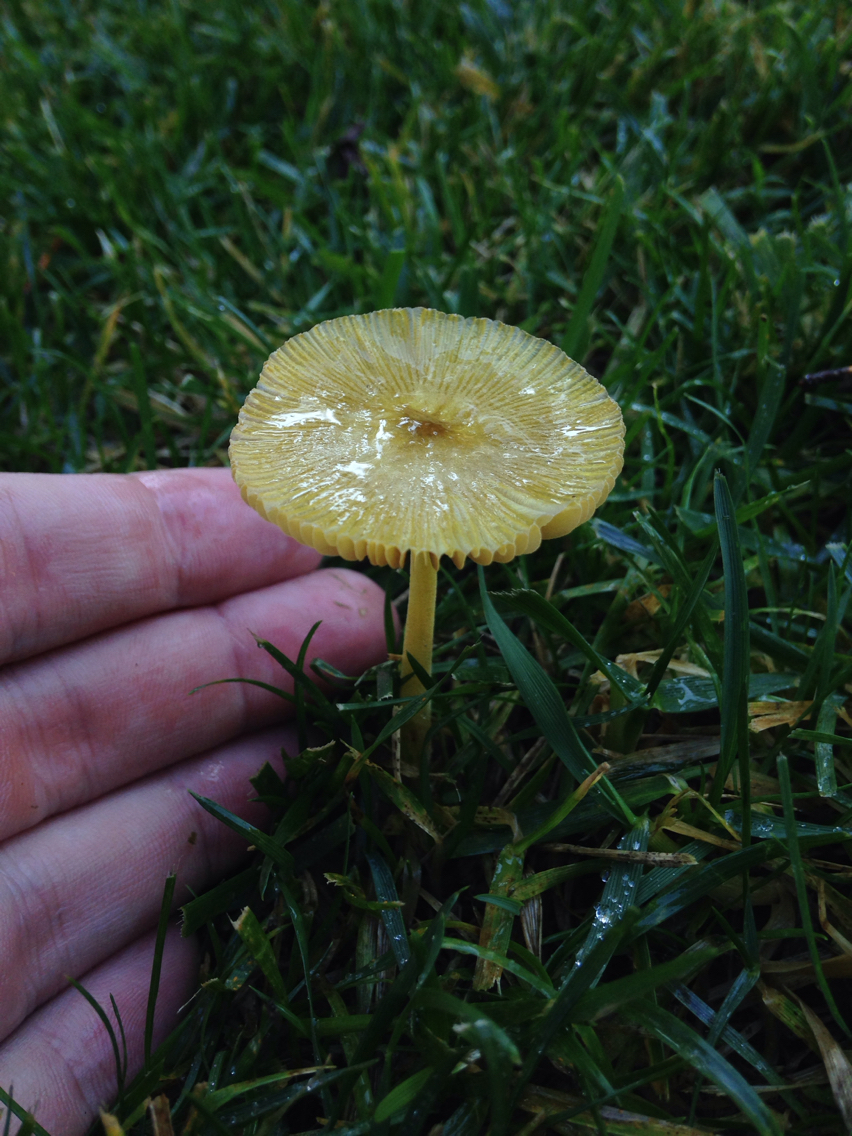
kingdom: Fungi
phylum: Basidiomycota
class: Agaricomycetes
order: Agaricales
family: Bolbitiaceae
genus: Bolbitius
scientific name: Bolbitius titubans
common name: Yellow fieldcap
